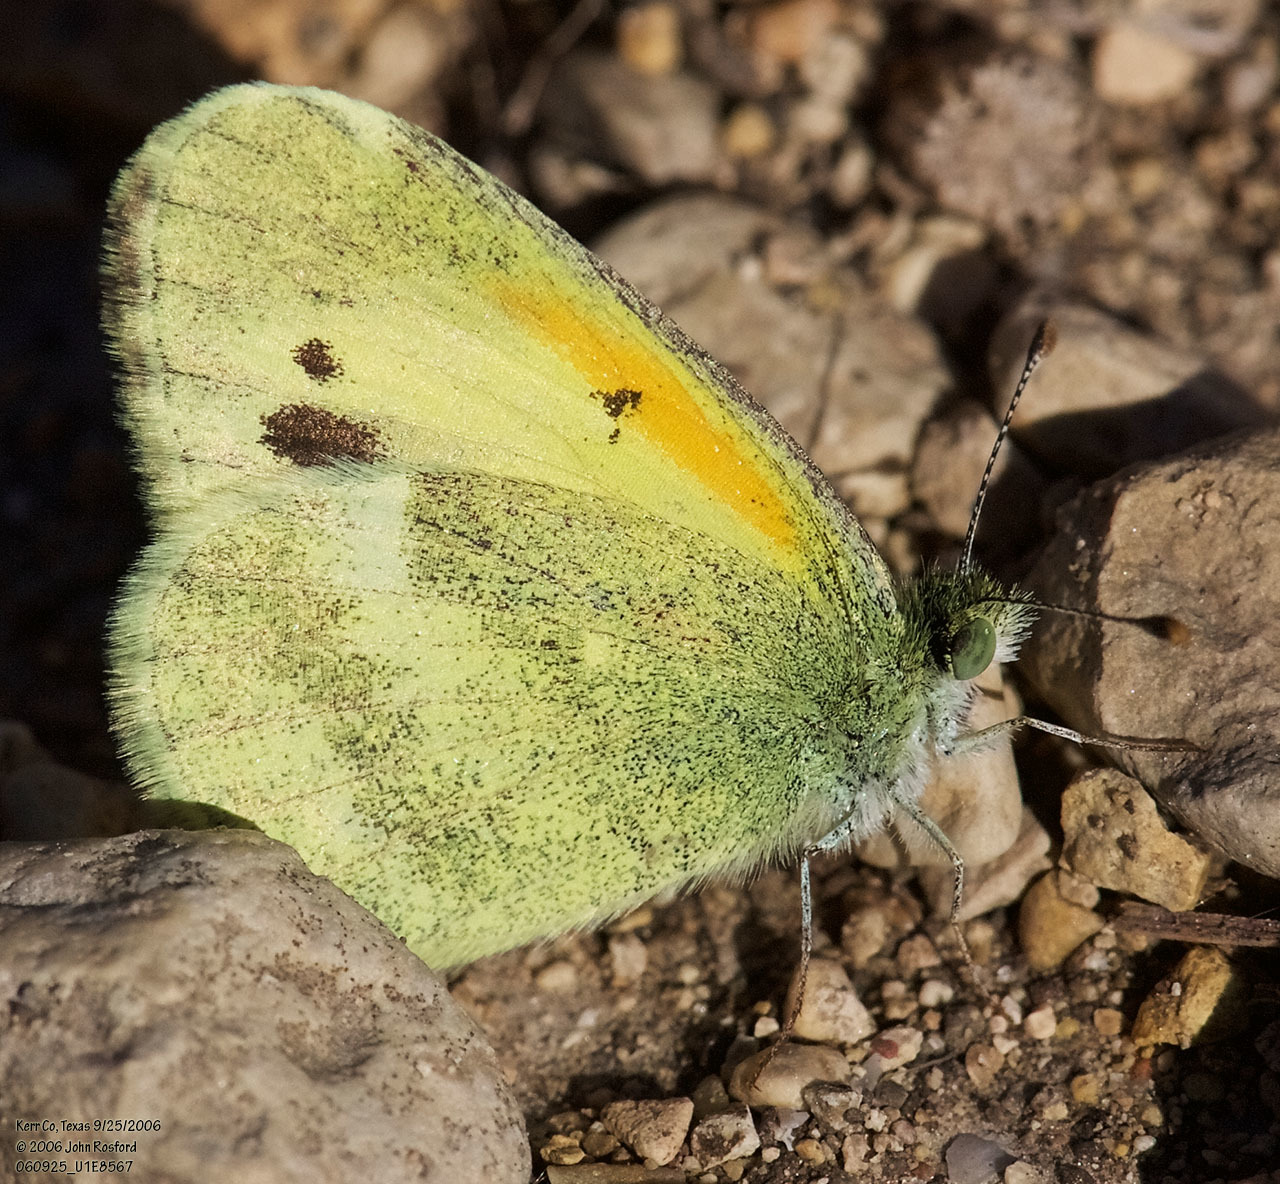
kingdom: Animalia
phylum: Arthropoda
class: Insecta
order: Lepidoptera
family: Pieridae
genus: Nathalis
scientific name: Nathalis iole
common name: Dainty sulphur
